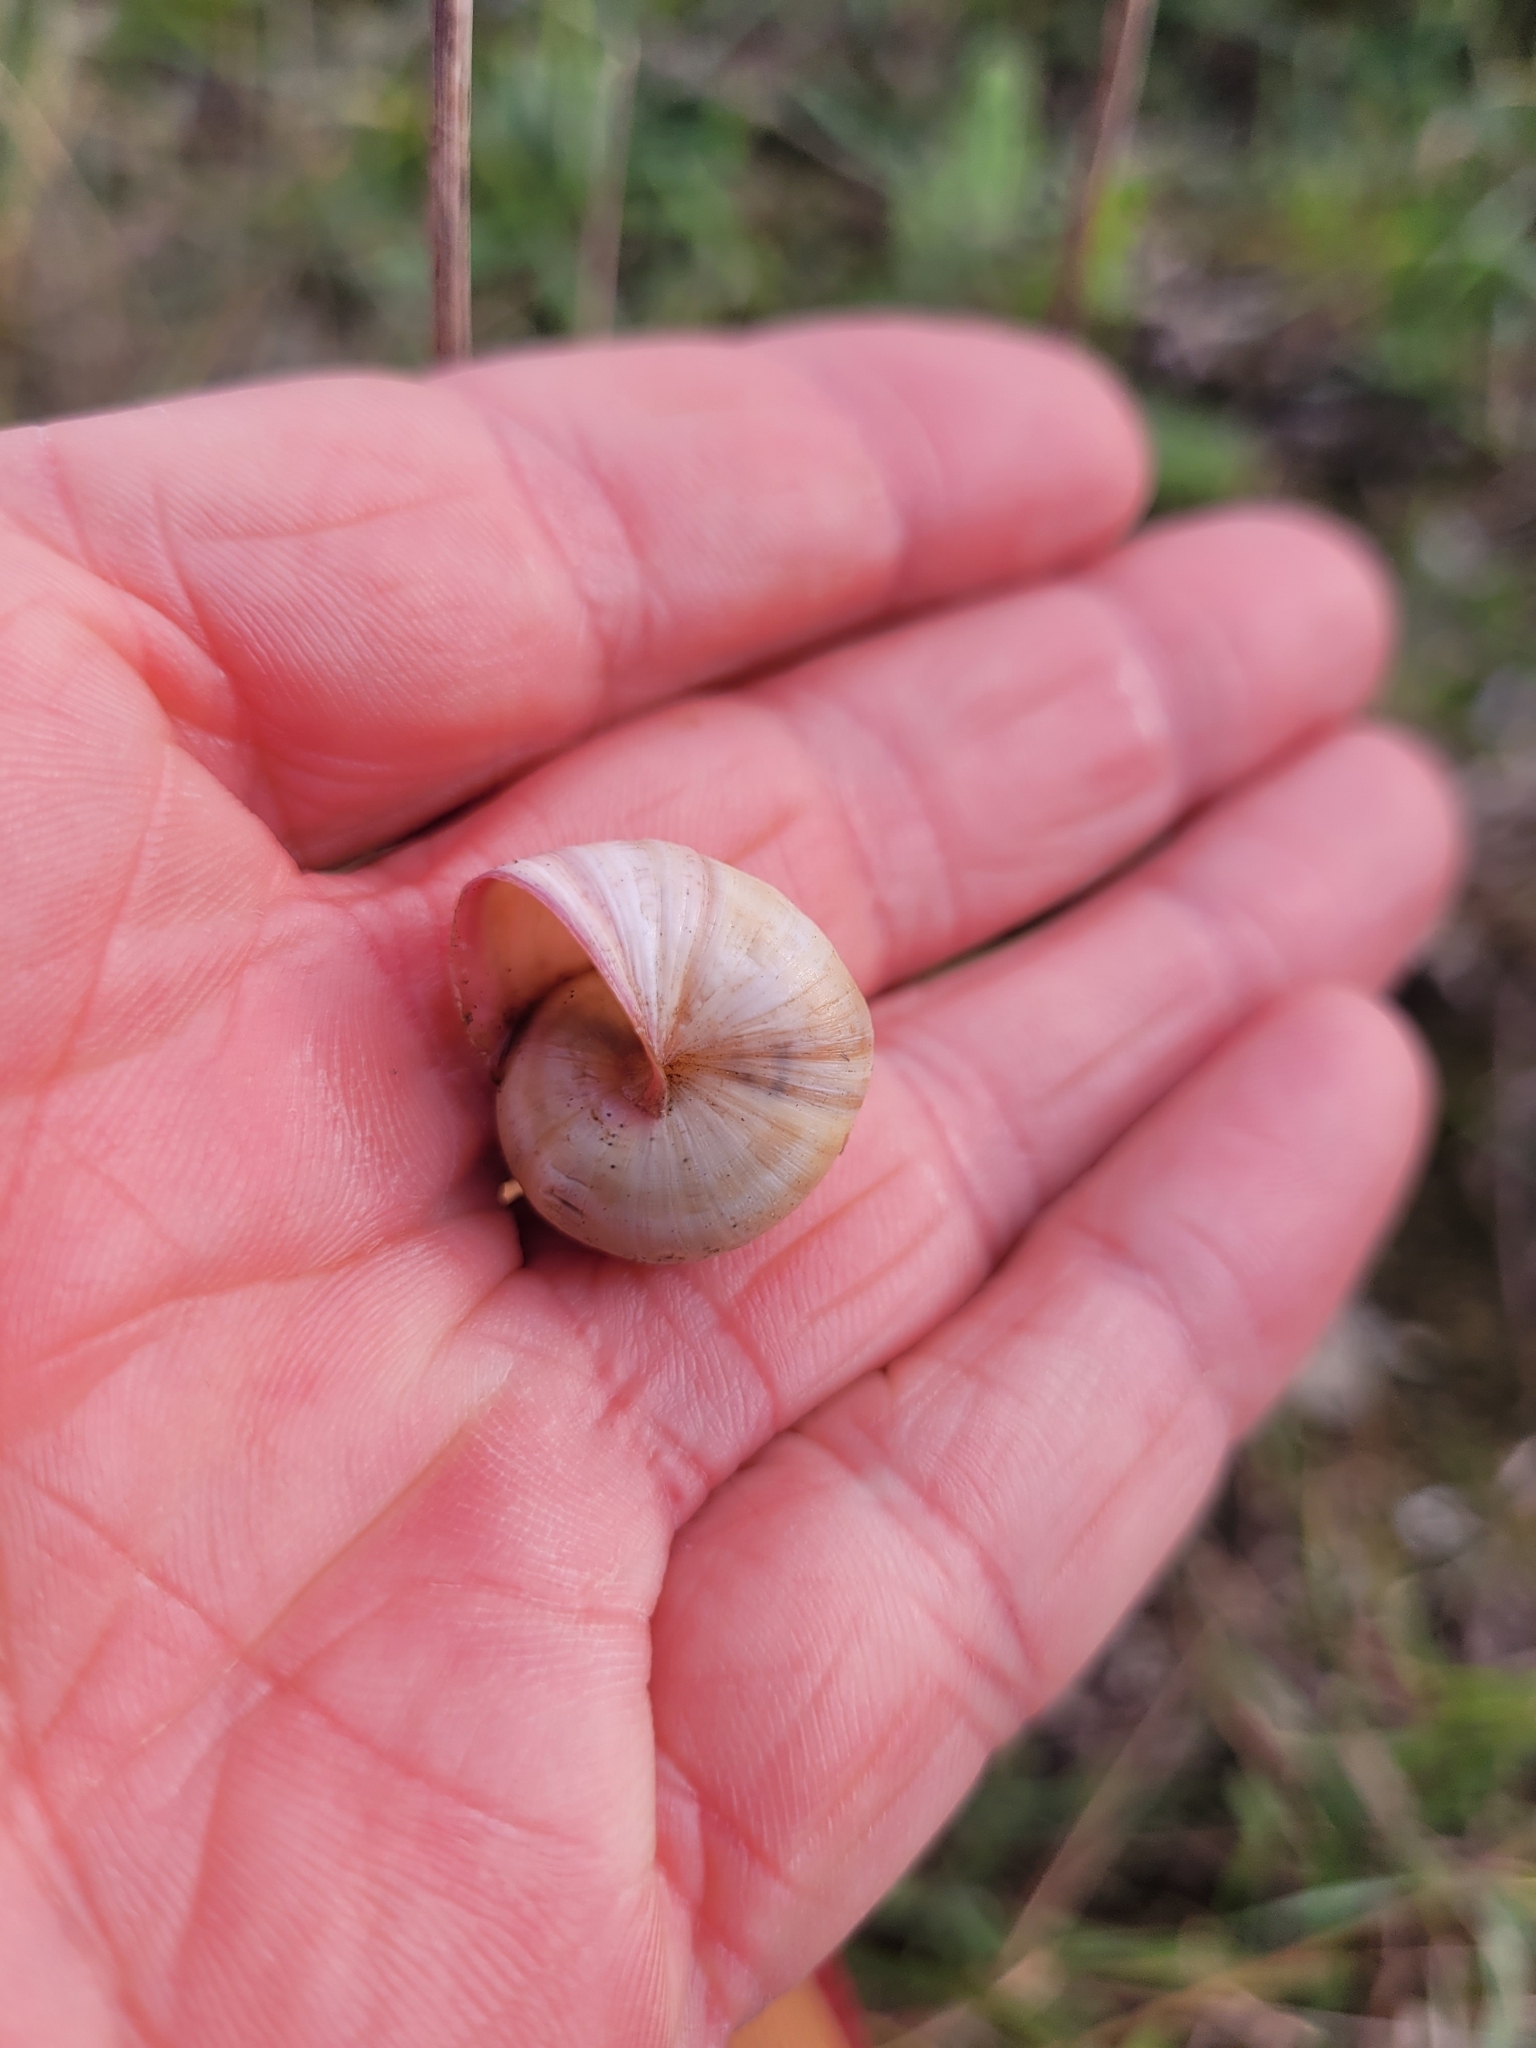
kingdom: Animalia
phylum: Mollusca
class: Gastropoda
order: Stylommatophora
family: Helicidae
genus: Theba
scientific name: Theba pisana
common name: White snail
